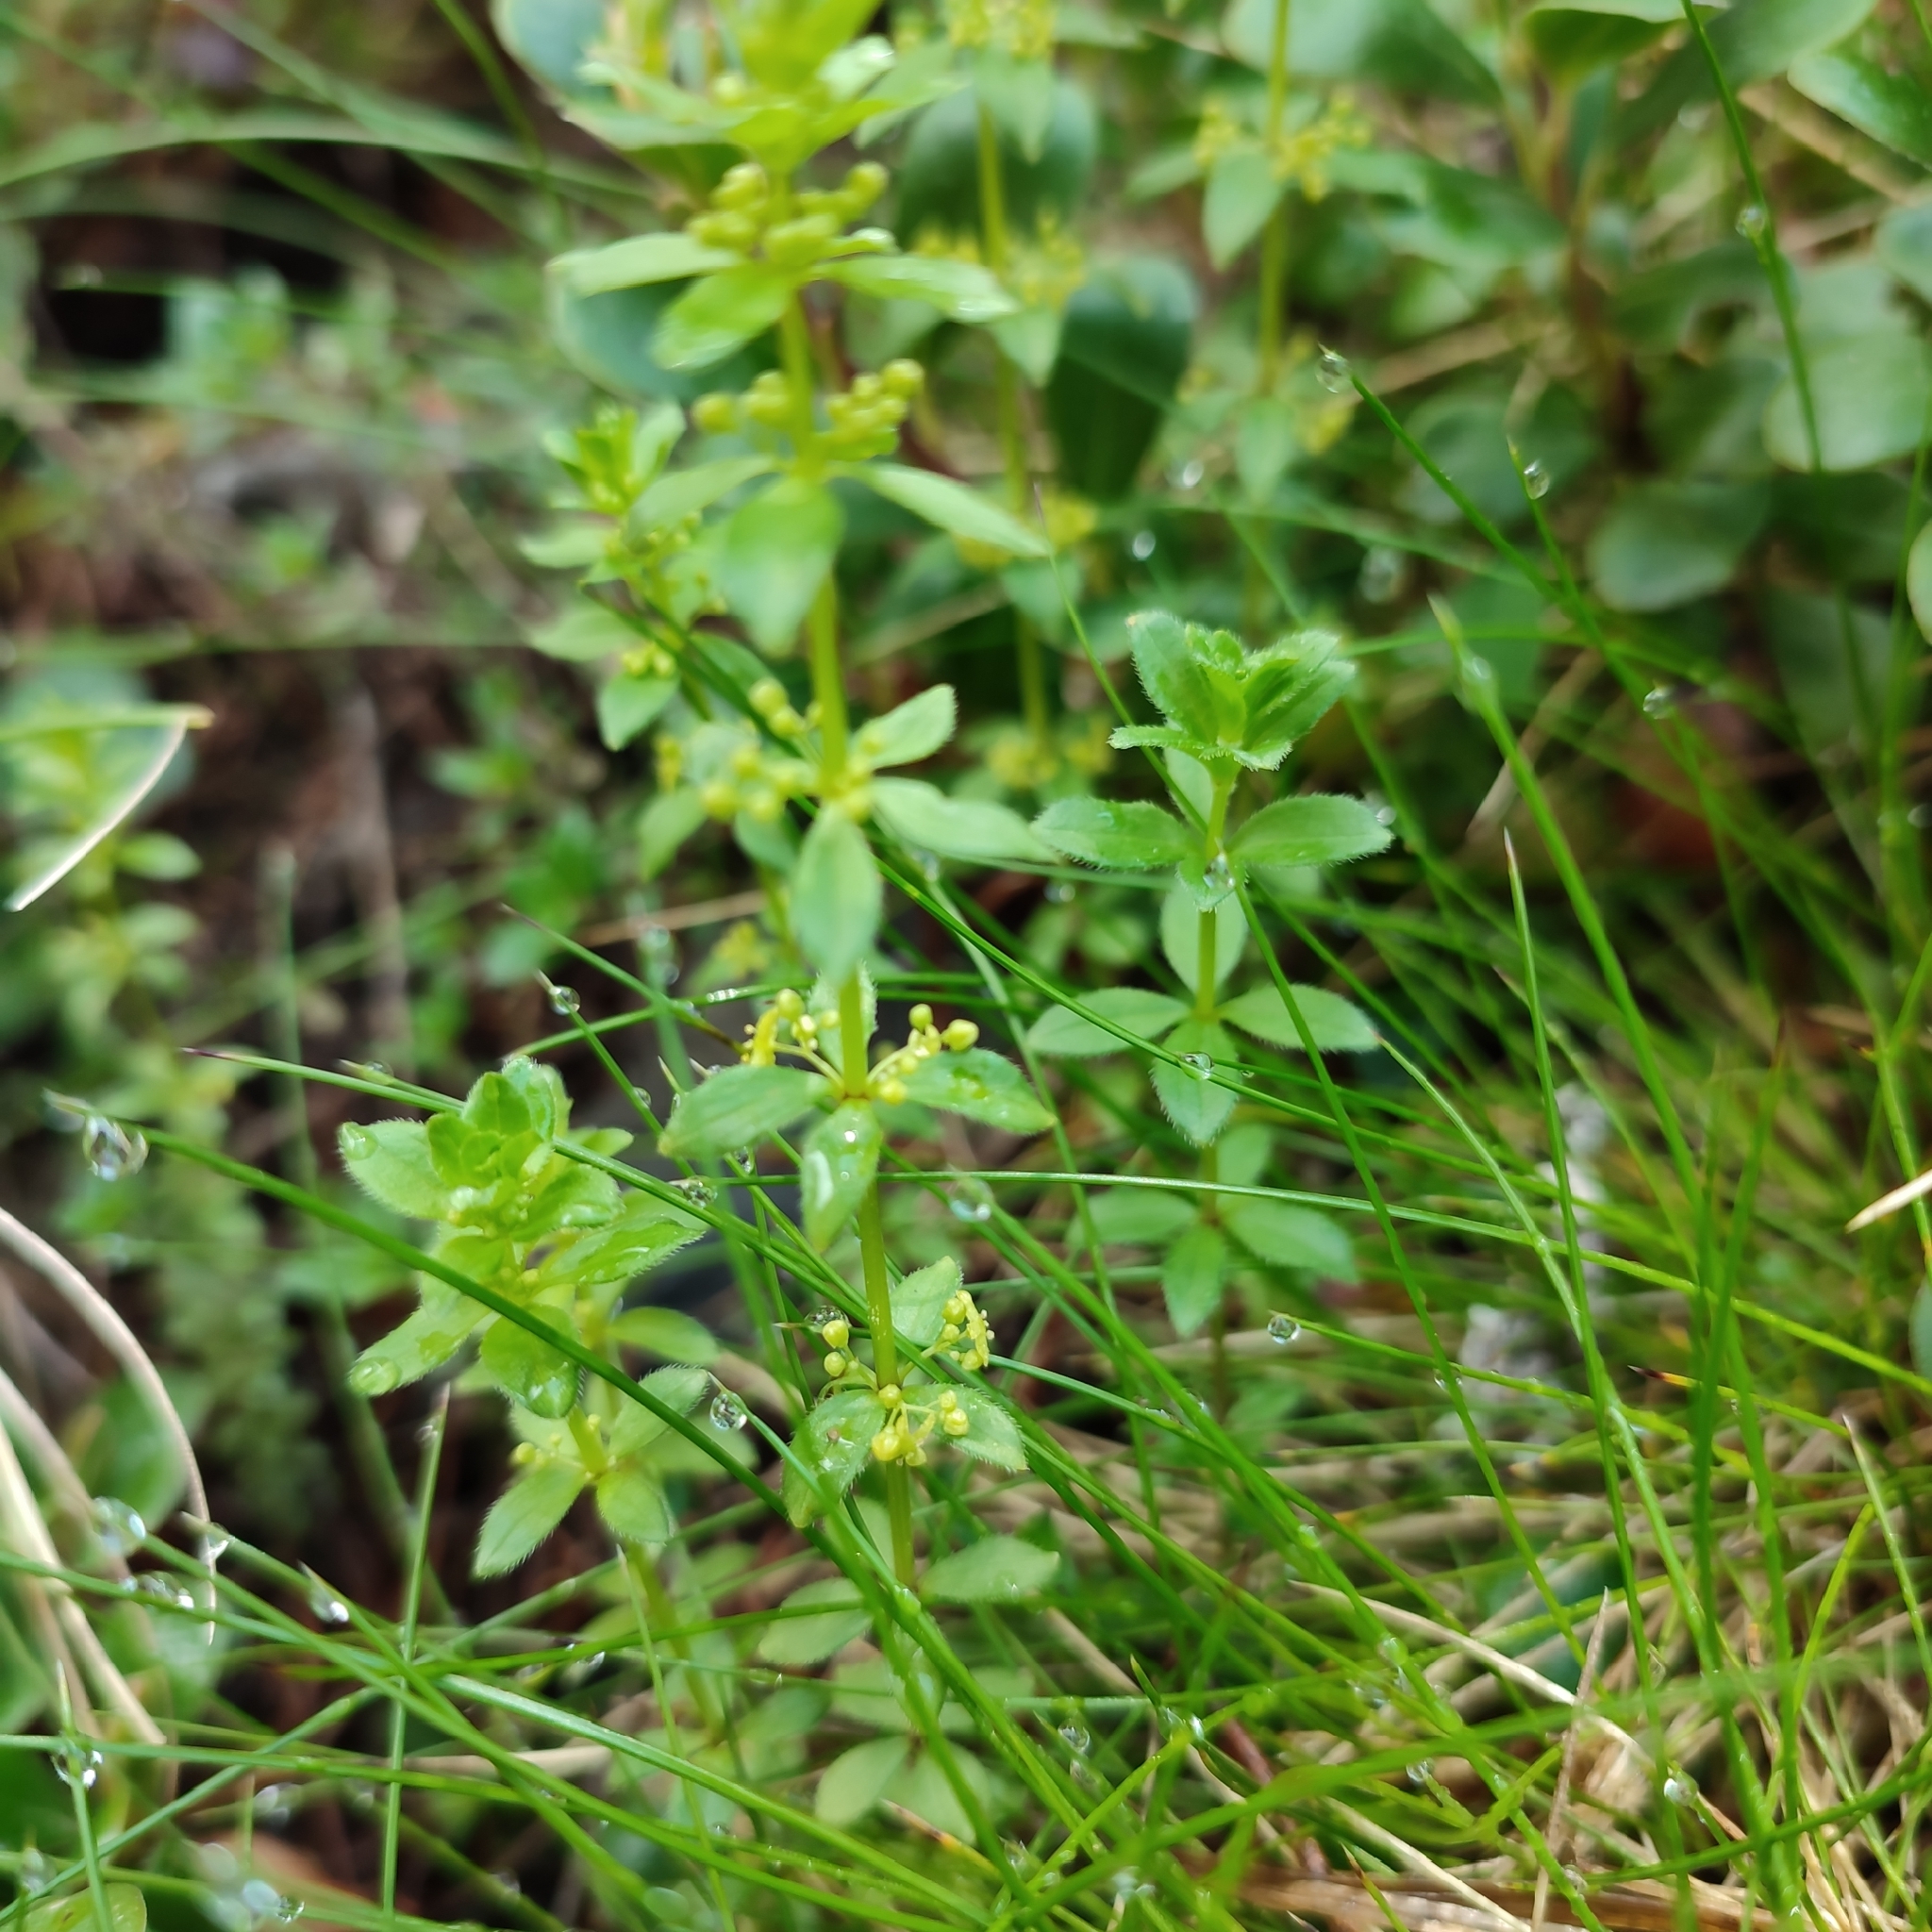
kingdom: Plantae
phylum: Tracheophyta
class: Magnoliopsida
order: Gentianales
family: Rubiaceae
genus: Cruciata
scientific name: Cruciata glabra
